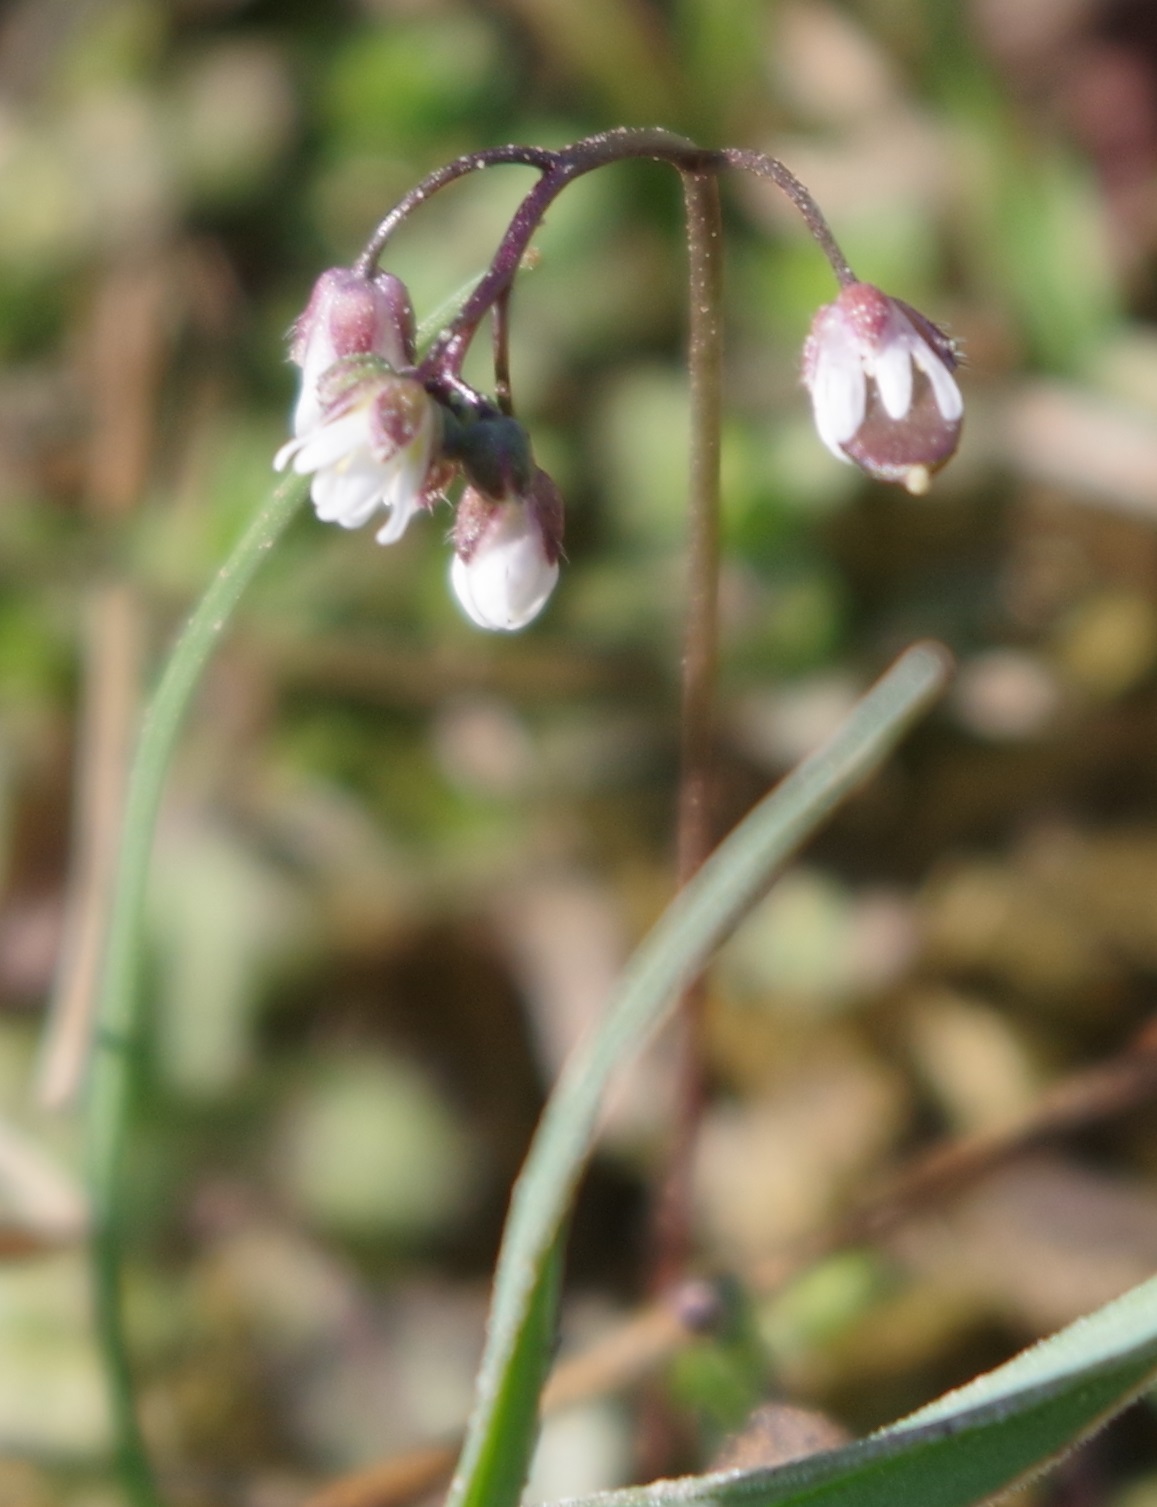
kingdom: Plantae
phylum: Tracheophyta
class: Magnoliopsida
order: Brassicales
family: Brassicaceae
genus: Draba
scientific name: Draba verna
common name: Spring draba
